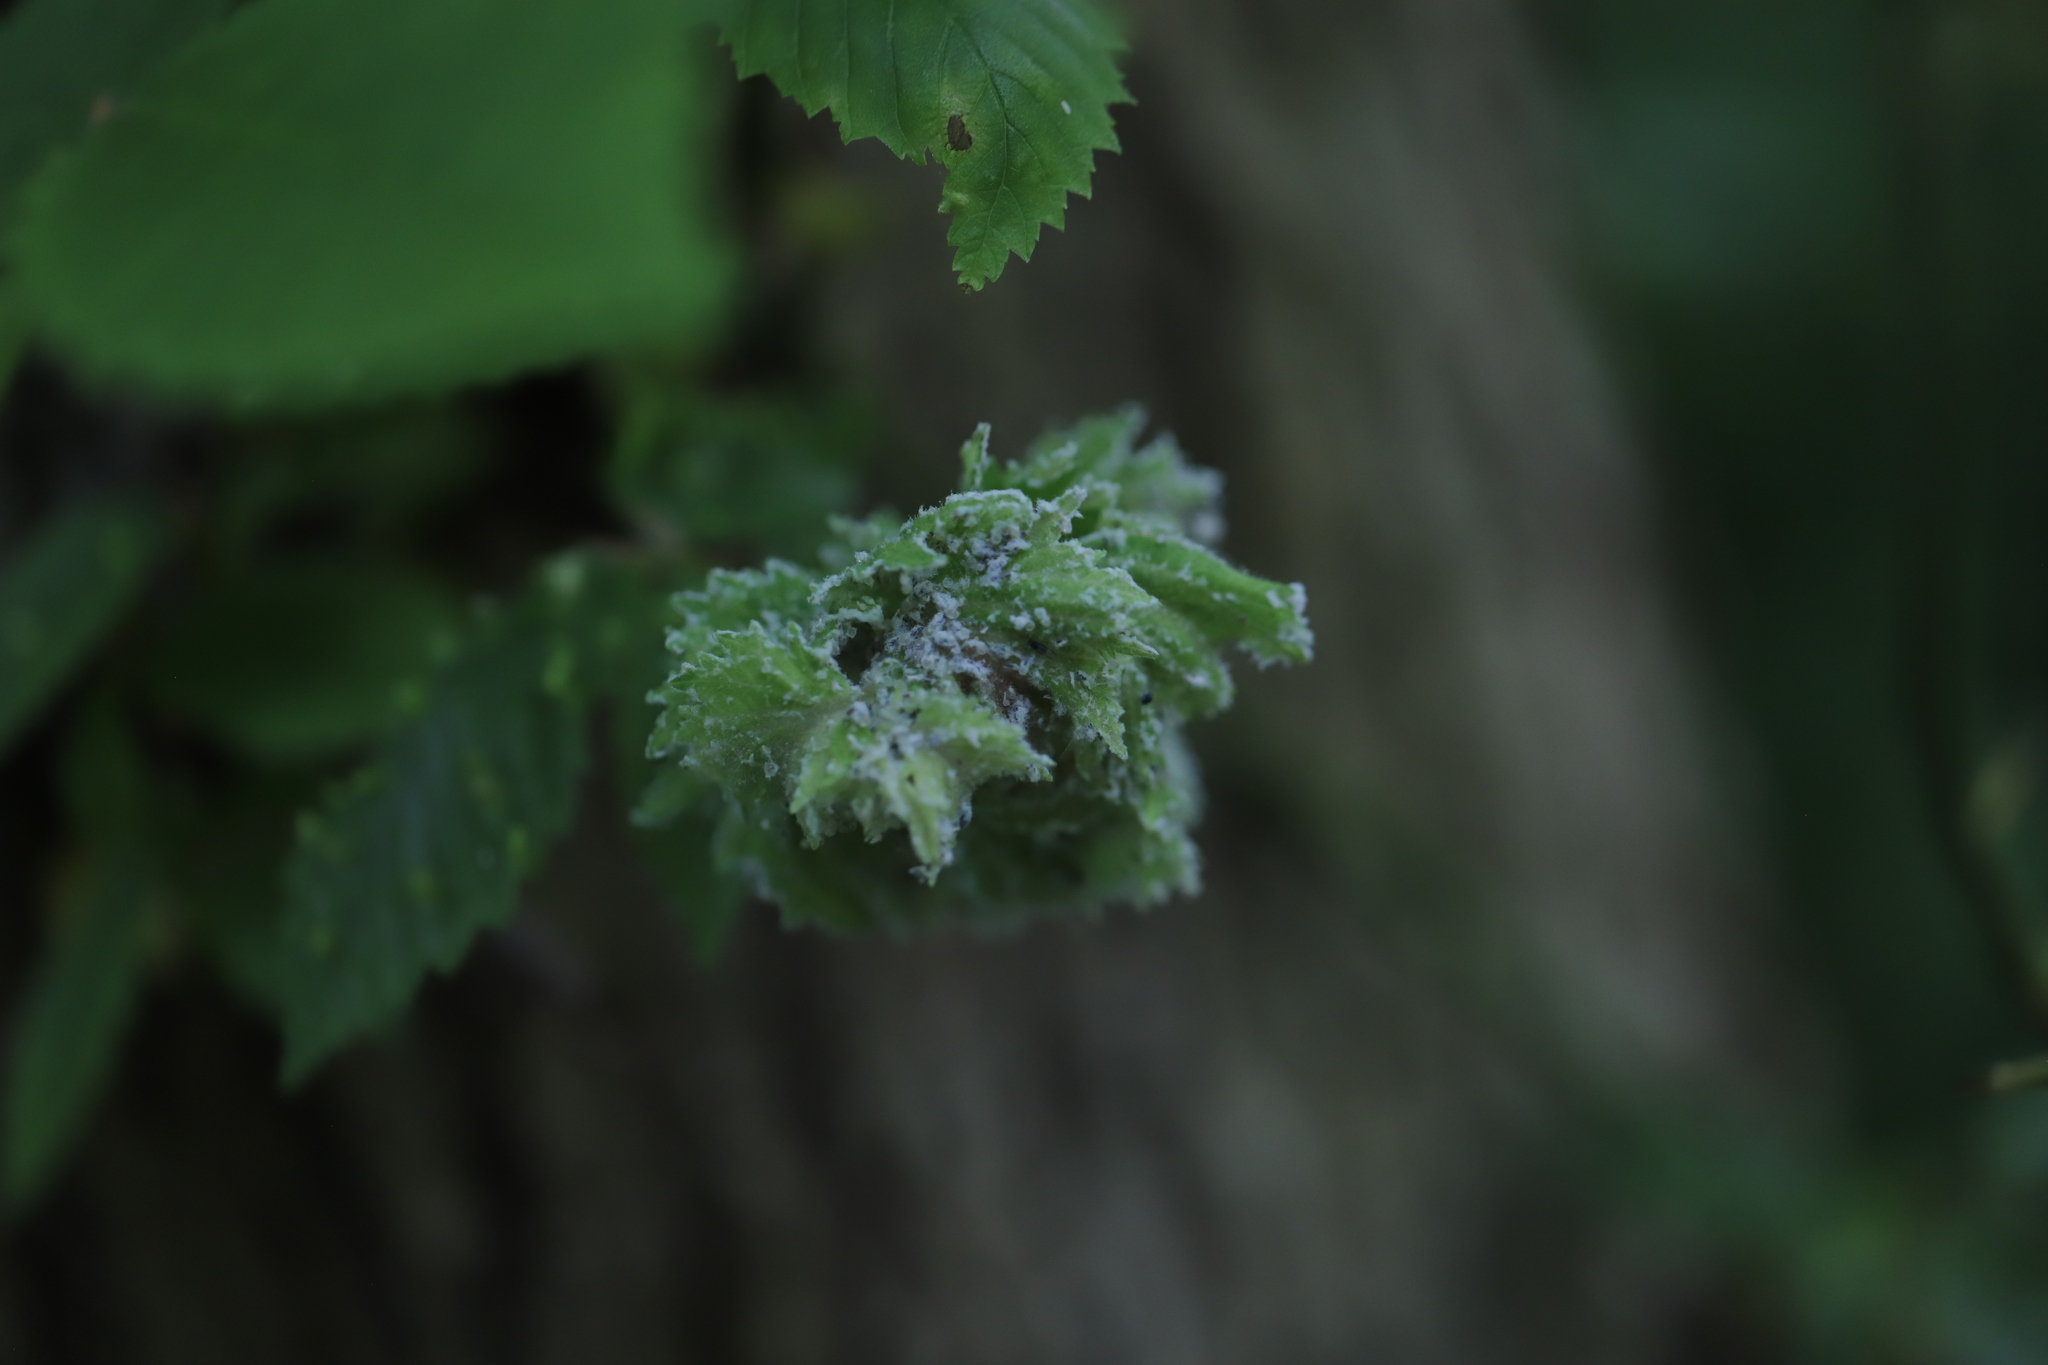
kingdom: Animalia
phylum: Arthropoda
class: Insecta
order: Hemiptera
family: Aphididae
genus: Eriosoma
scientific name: Eriosoma americanum
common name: Woolly elm aphid
